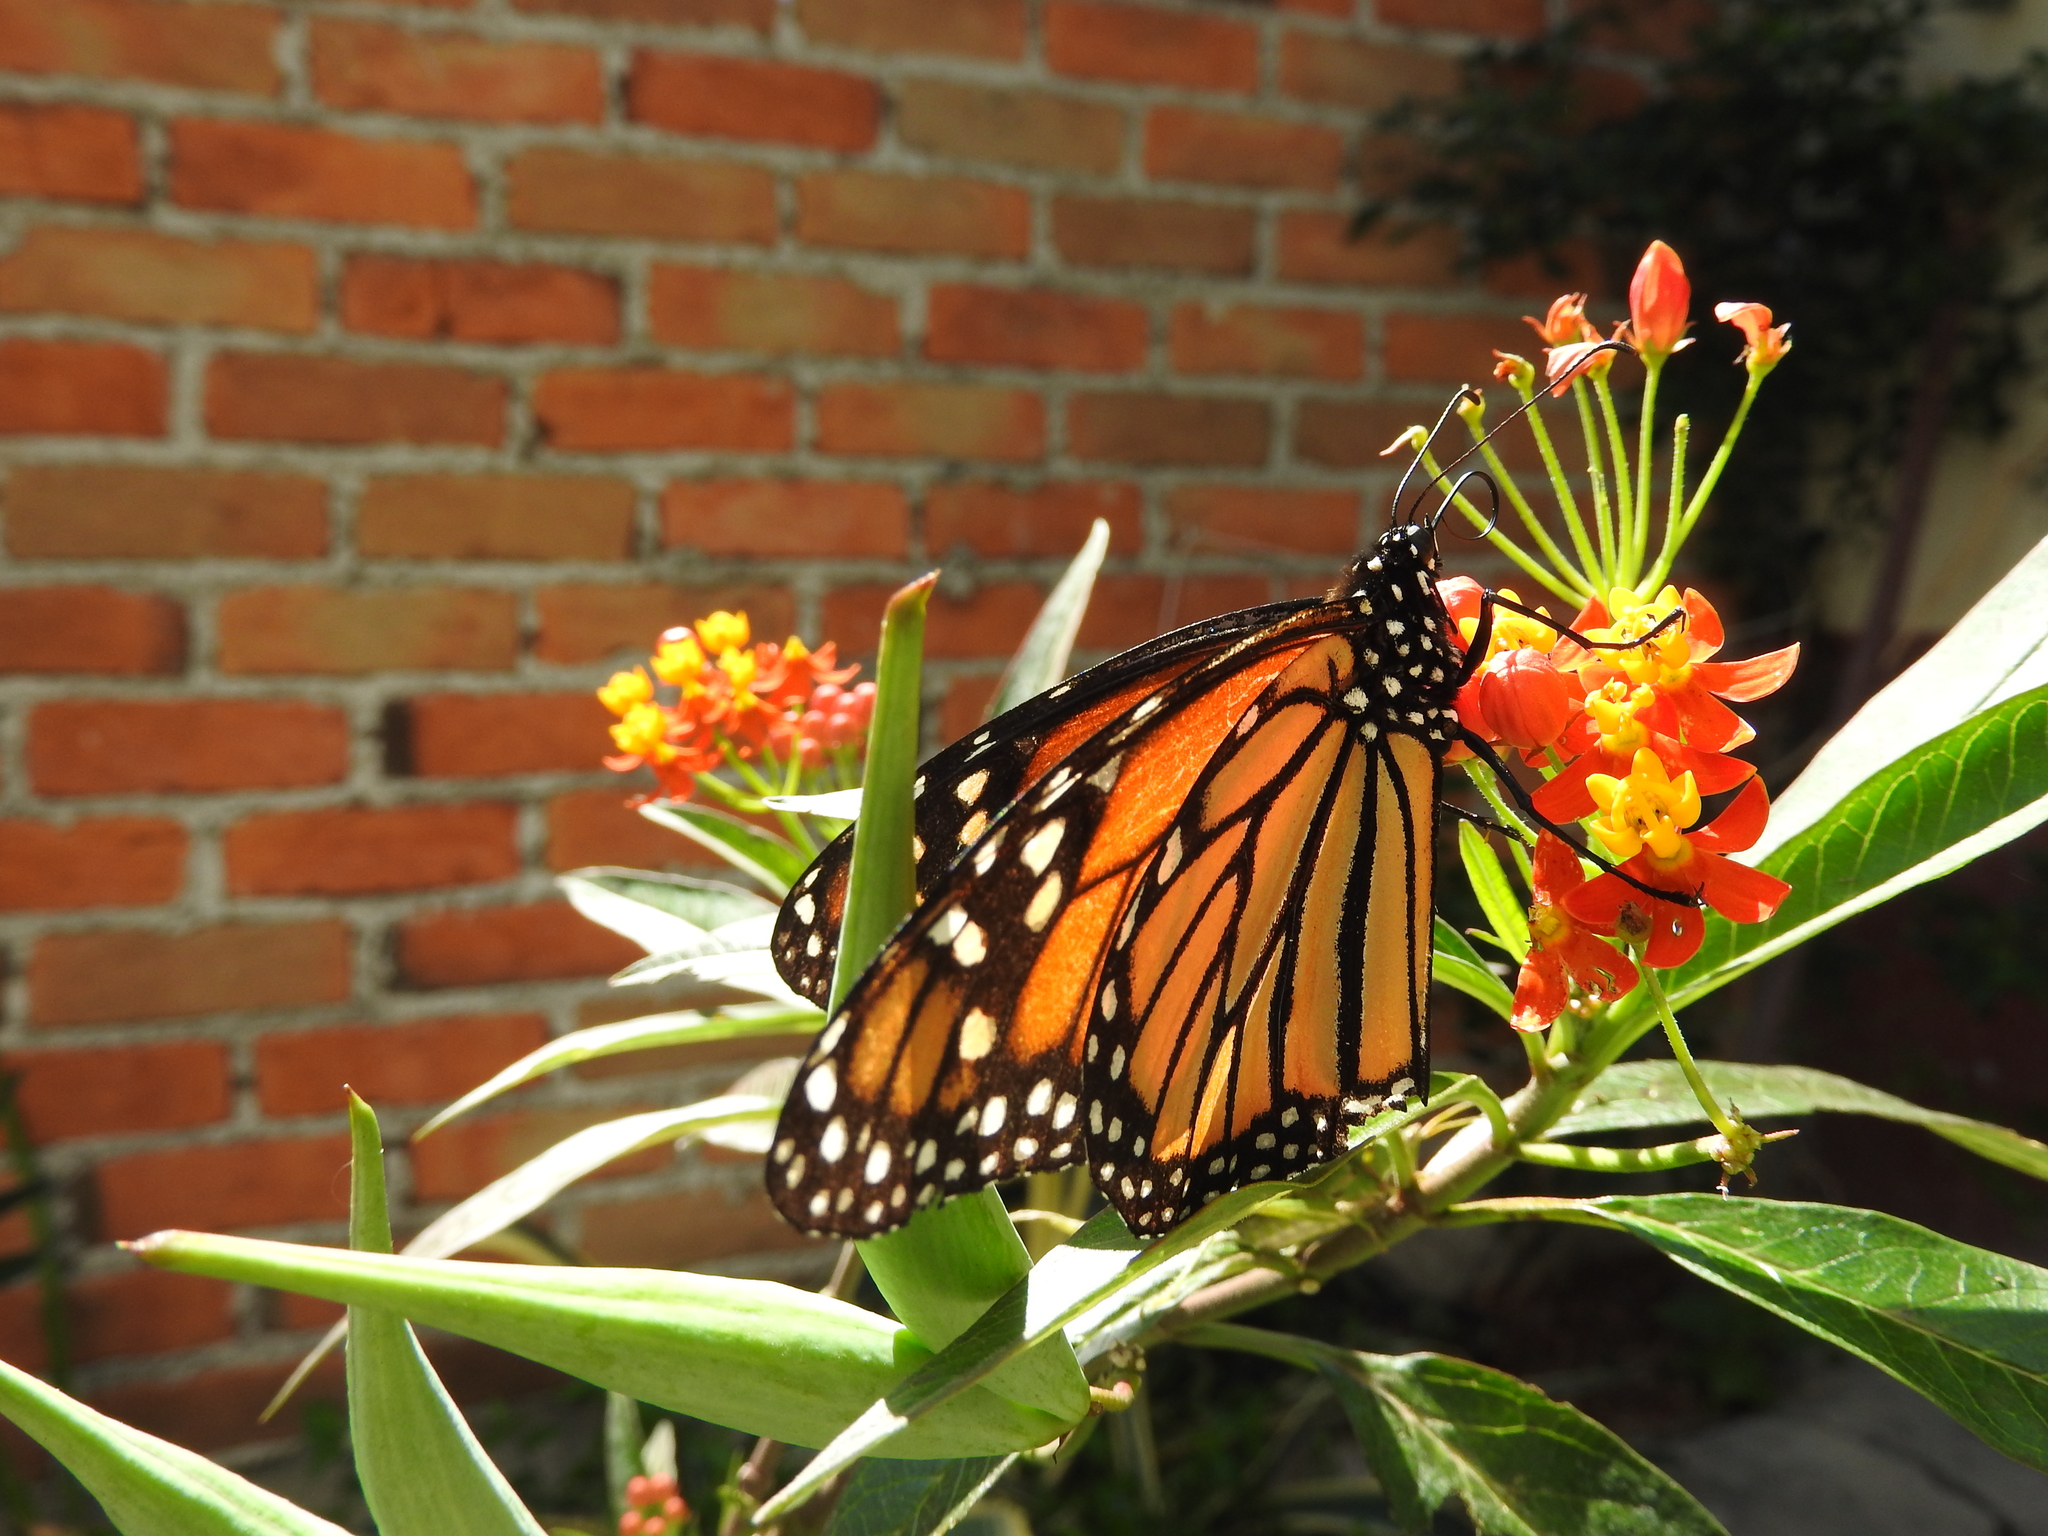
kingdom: Animalia
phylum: Arthropoda
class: Insecta
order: Lepidoptera
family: Nymphalidae
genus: Danaus
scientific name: Danaus plexippus
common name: Monarch
